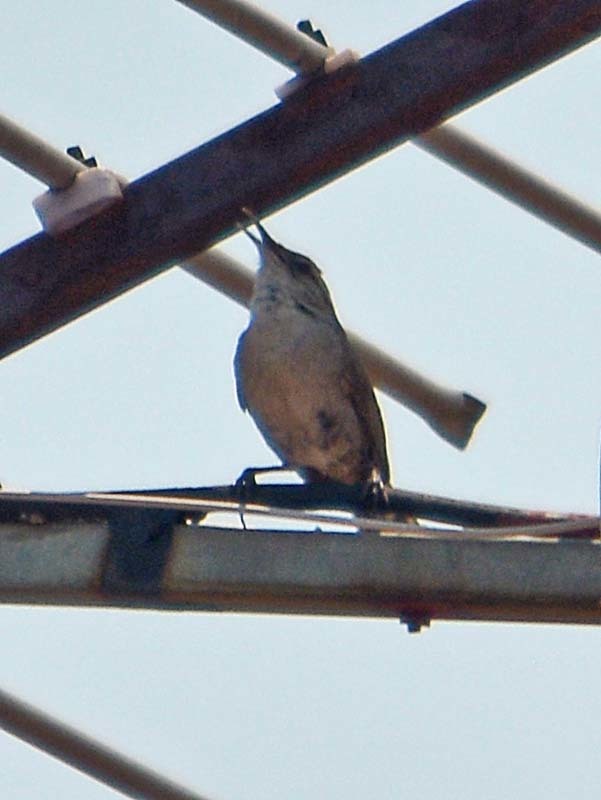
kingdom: Animalia
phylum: Chordata
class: Aves
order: Passeriformes
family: Troglodytidae
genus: Thryomanes
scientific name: Thryomanes bewickii
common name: Bewick's wren
